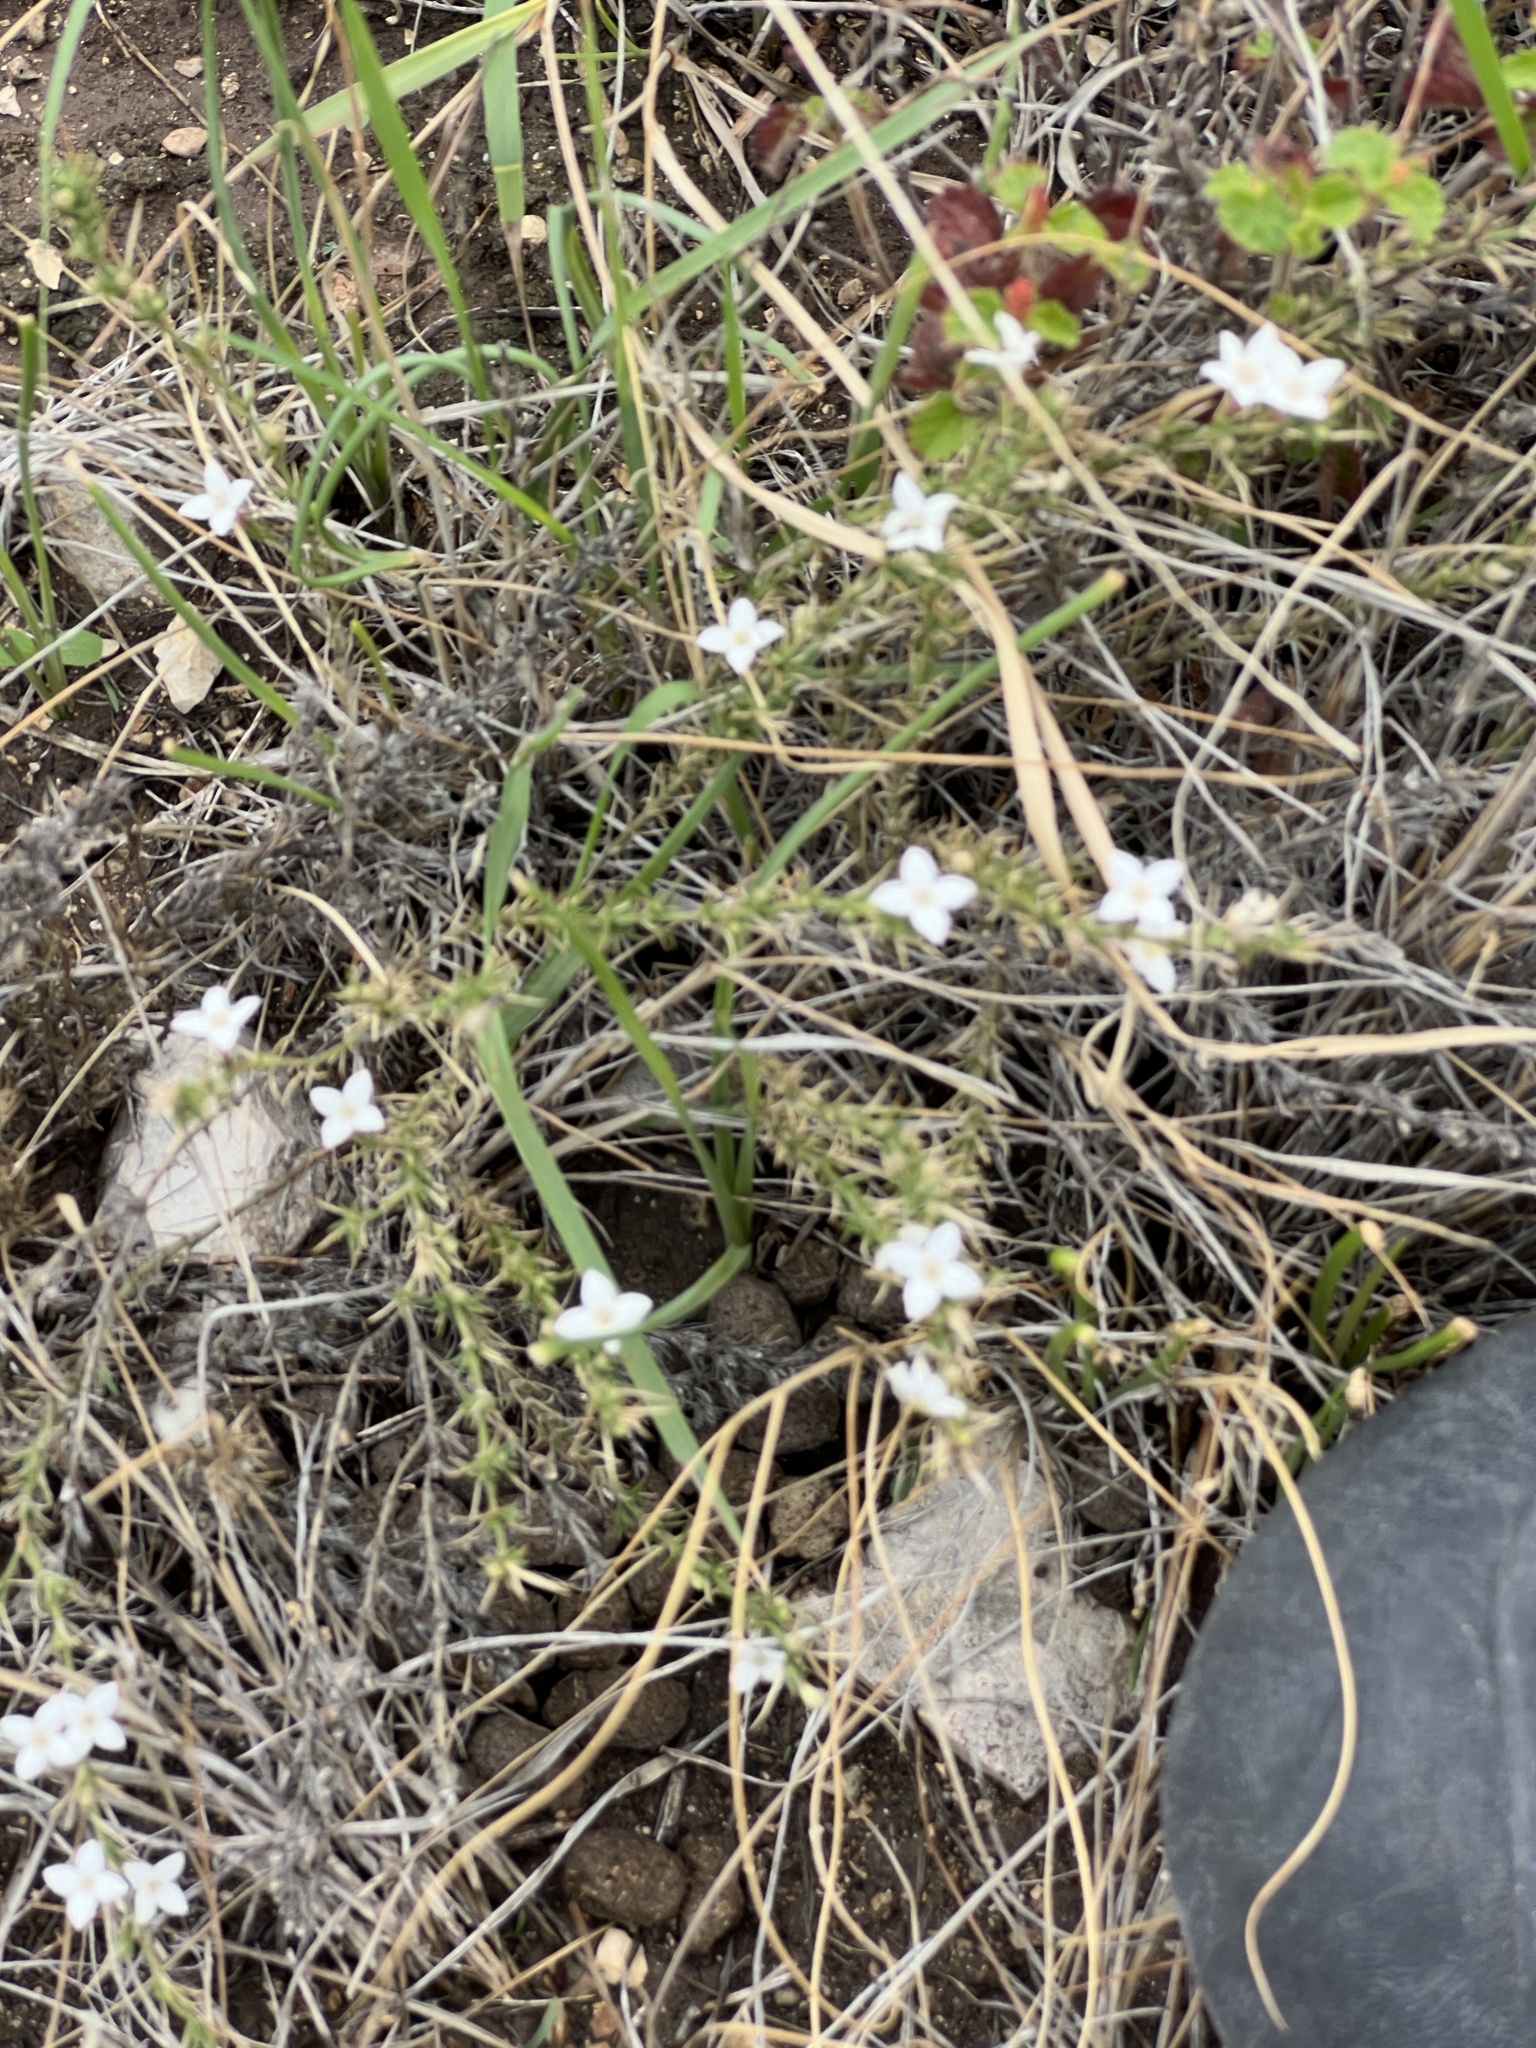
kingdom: Plantae
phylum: Tracheophyta
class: Magnoliopsida
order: Gentianales
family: Rubiaceae
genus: Houstonia
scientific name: Houstonia acerosa
